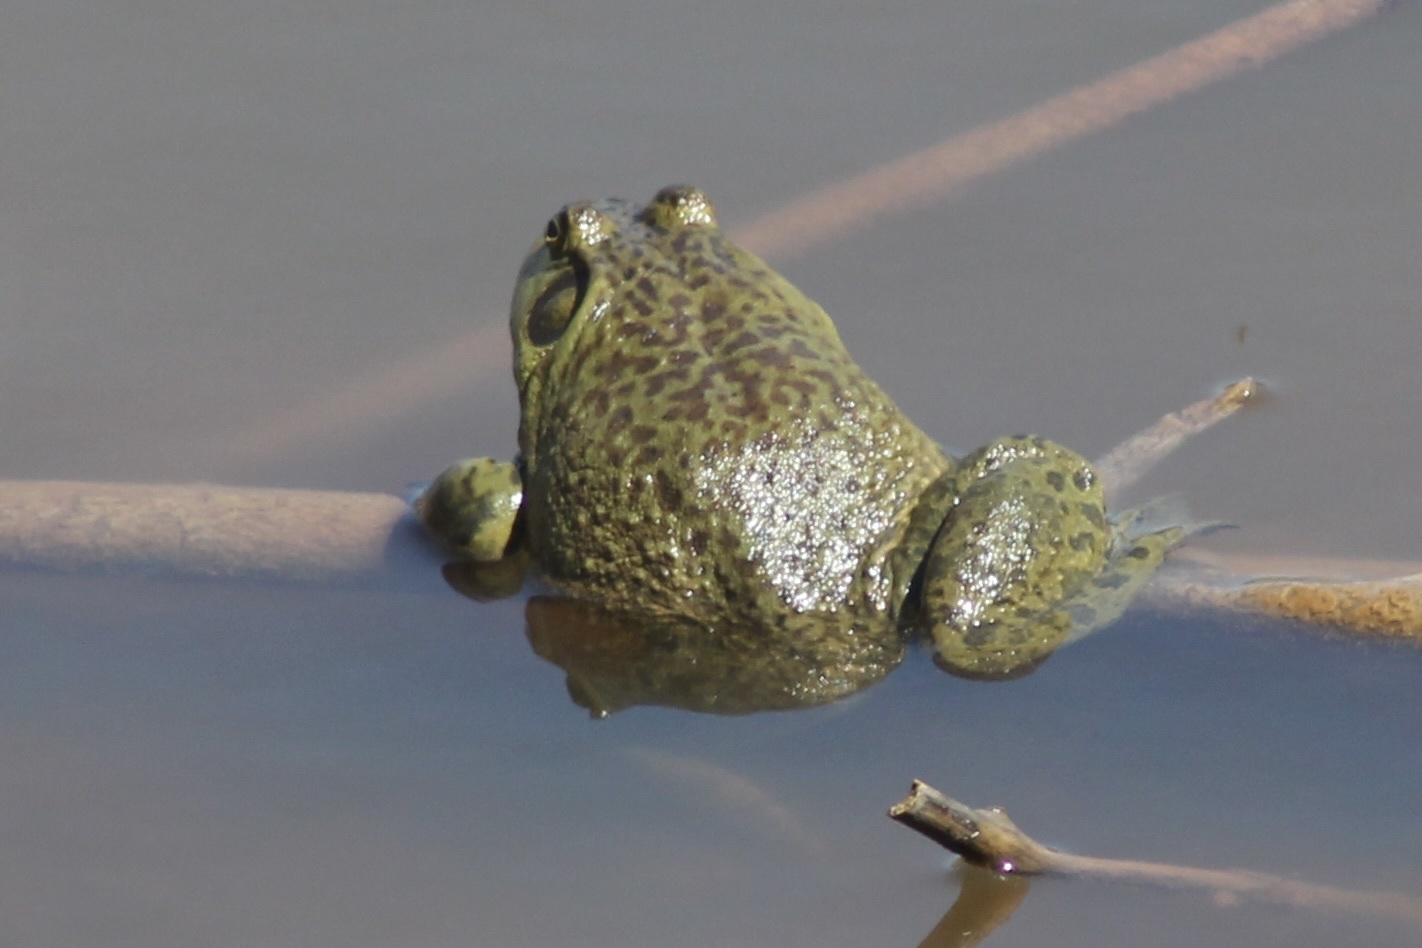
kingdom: Animalia
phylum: Chordata
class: Amphibia
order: Anura
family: Ranidae
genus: Lithobates
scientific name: Lithobates catesbeianus
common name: American bullfrog
